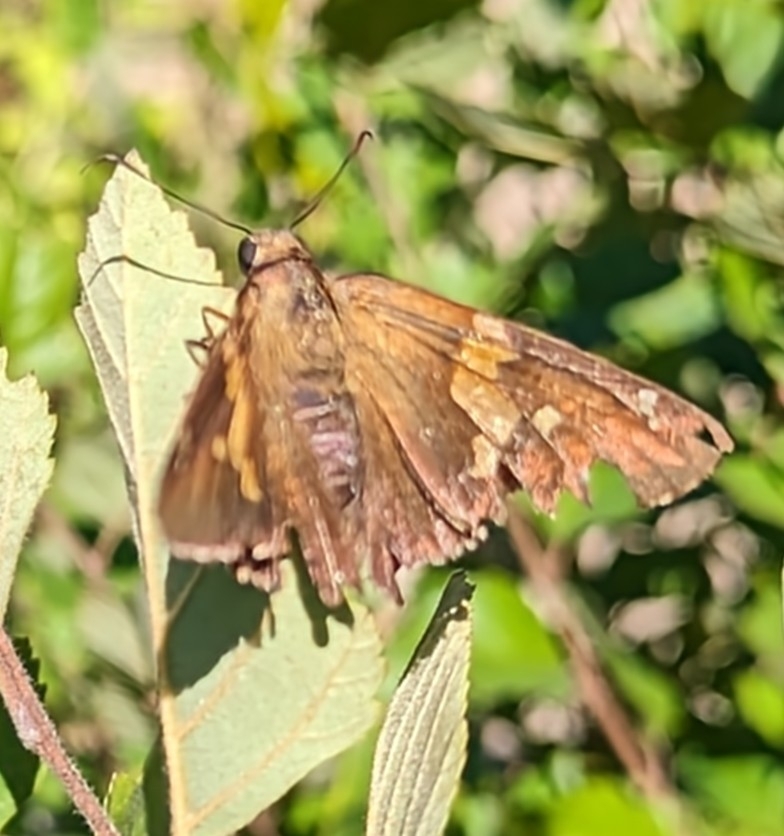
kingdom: Animalia
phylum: Arthropoda
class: Insecta
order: Lepidoptera
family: Hesperiidae
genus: Epargyreus
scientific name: Epargyreus clarus
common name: Silver-spotted skipper
